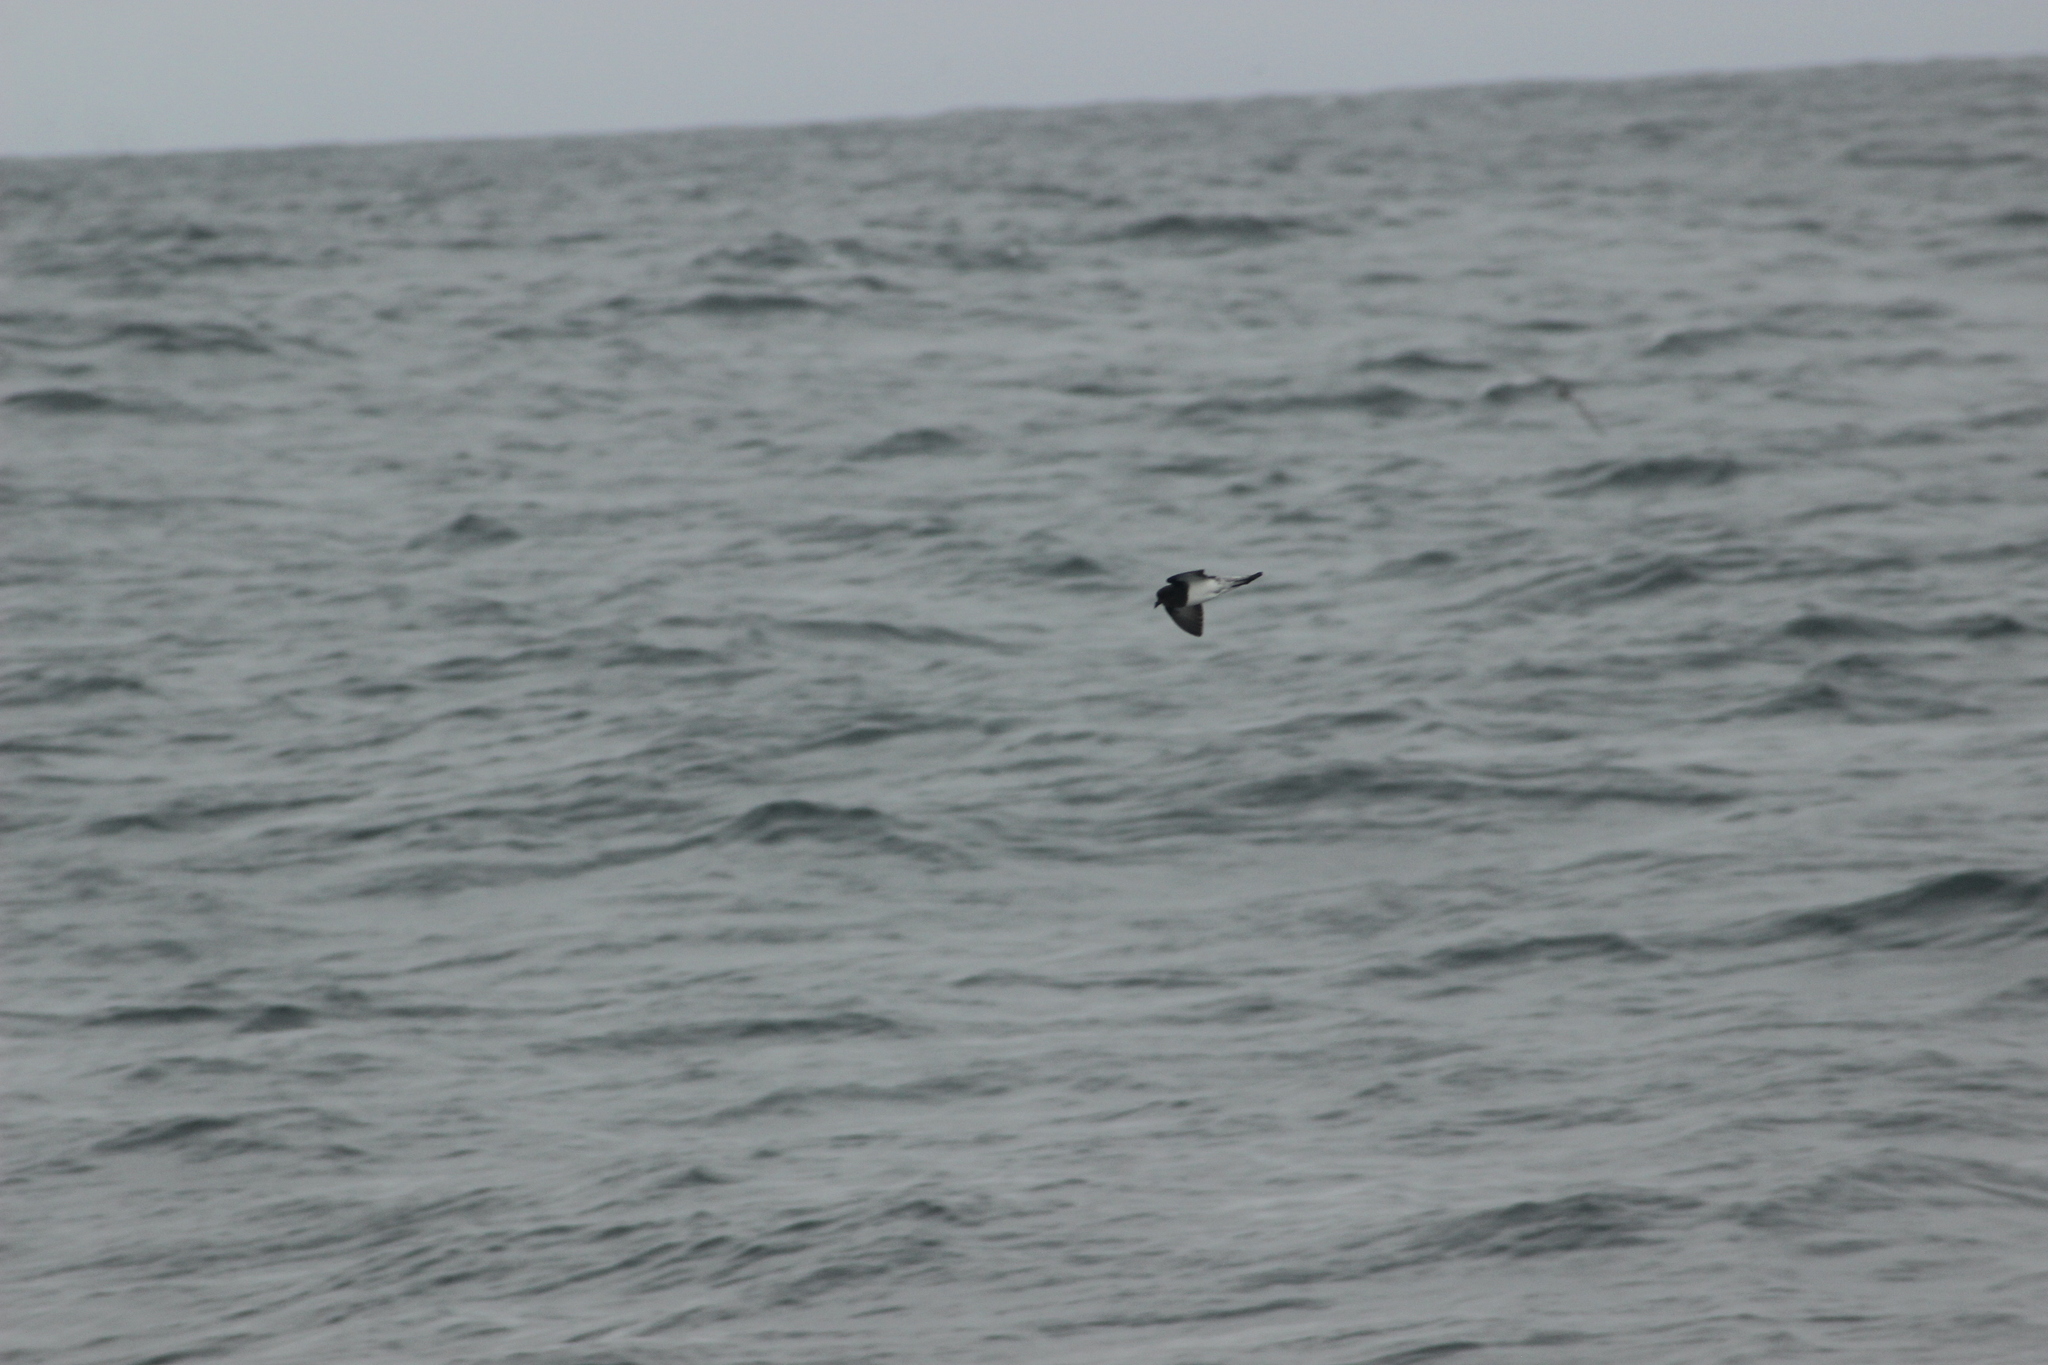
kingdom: Animalia
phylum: Chordata
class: Aves
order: Procellariiformes
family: Hydrobatidae
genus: Fregetta
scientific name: Fregetta tropica
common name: Black-bellied storm-petrel
